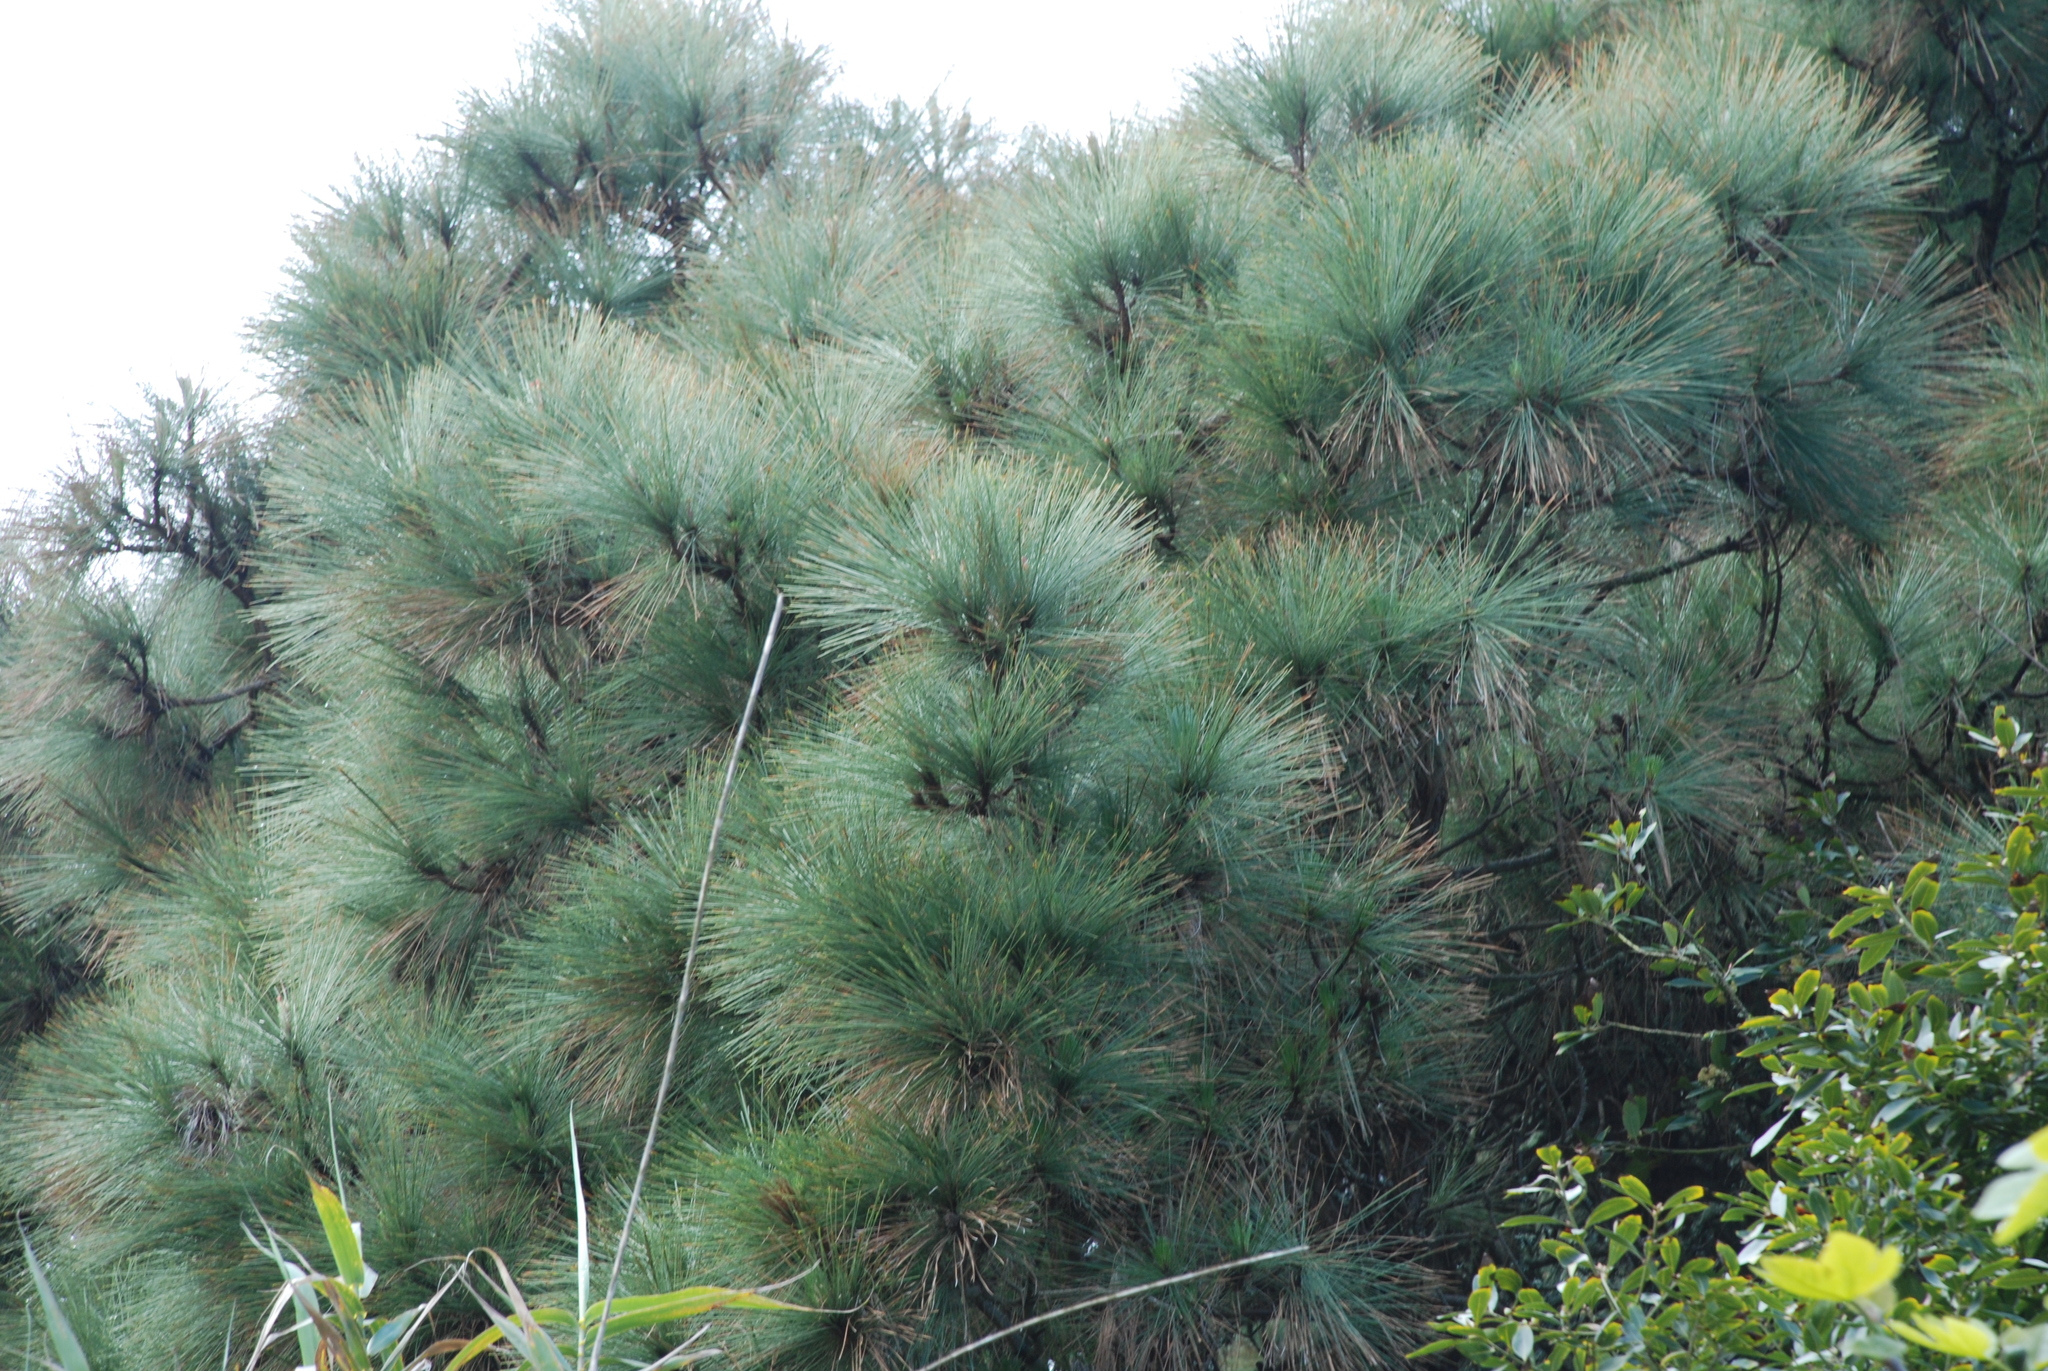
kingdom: Plantae
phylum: Tracheophyta
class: Pinopsida
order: Pinales
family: Pinaceae
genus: Pinus
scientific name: Pinus canariensis
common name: Canary islands pine
